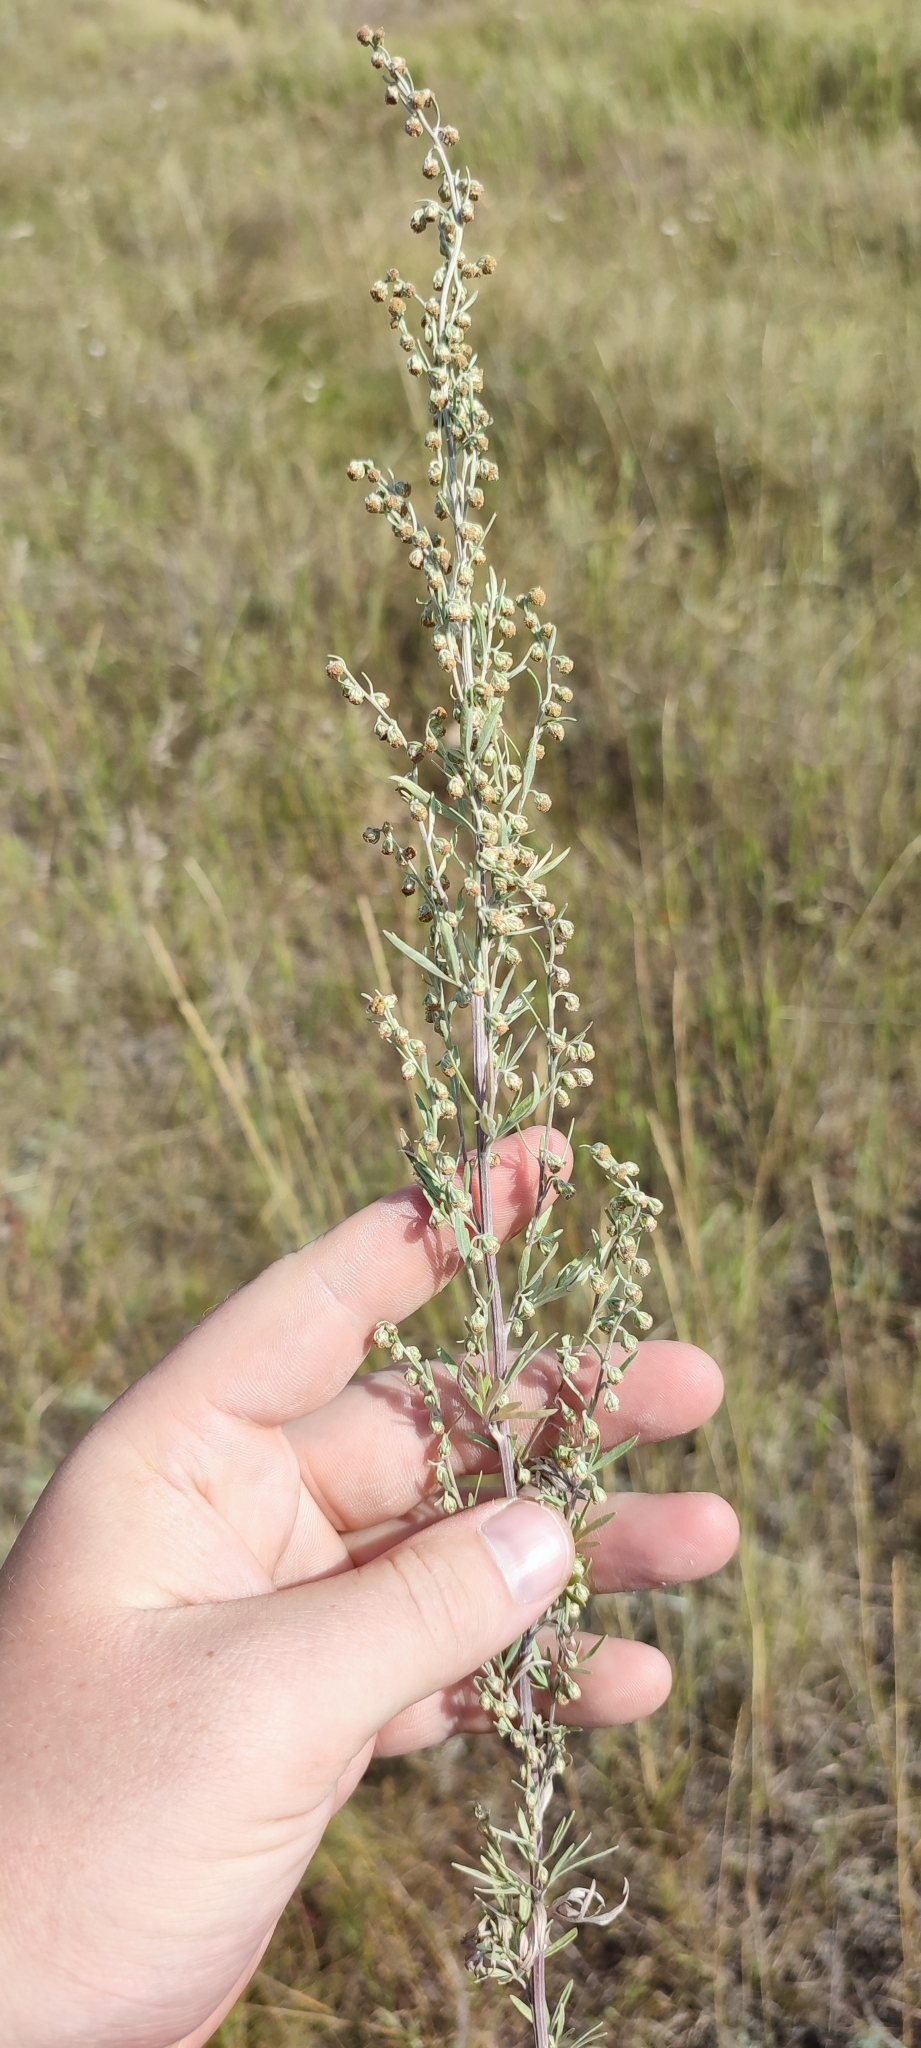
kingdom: Plantae
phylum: Tracheophyta
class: Magnoliopsida
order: Asterales
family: Asteraceae
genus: Artemisia
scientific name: Artemisia absinthium
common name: Wormwood
